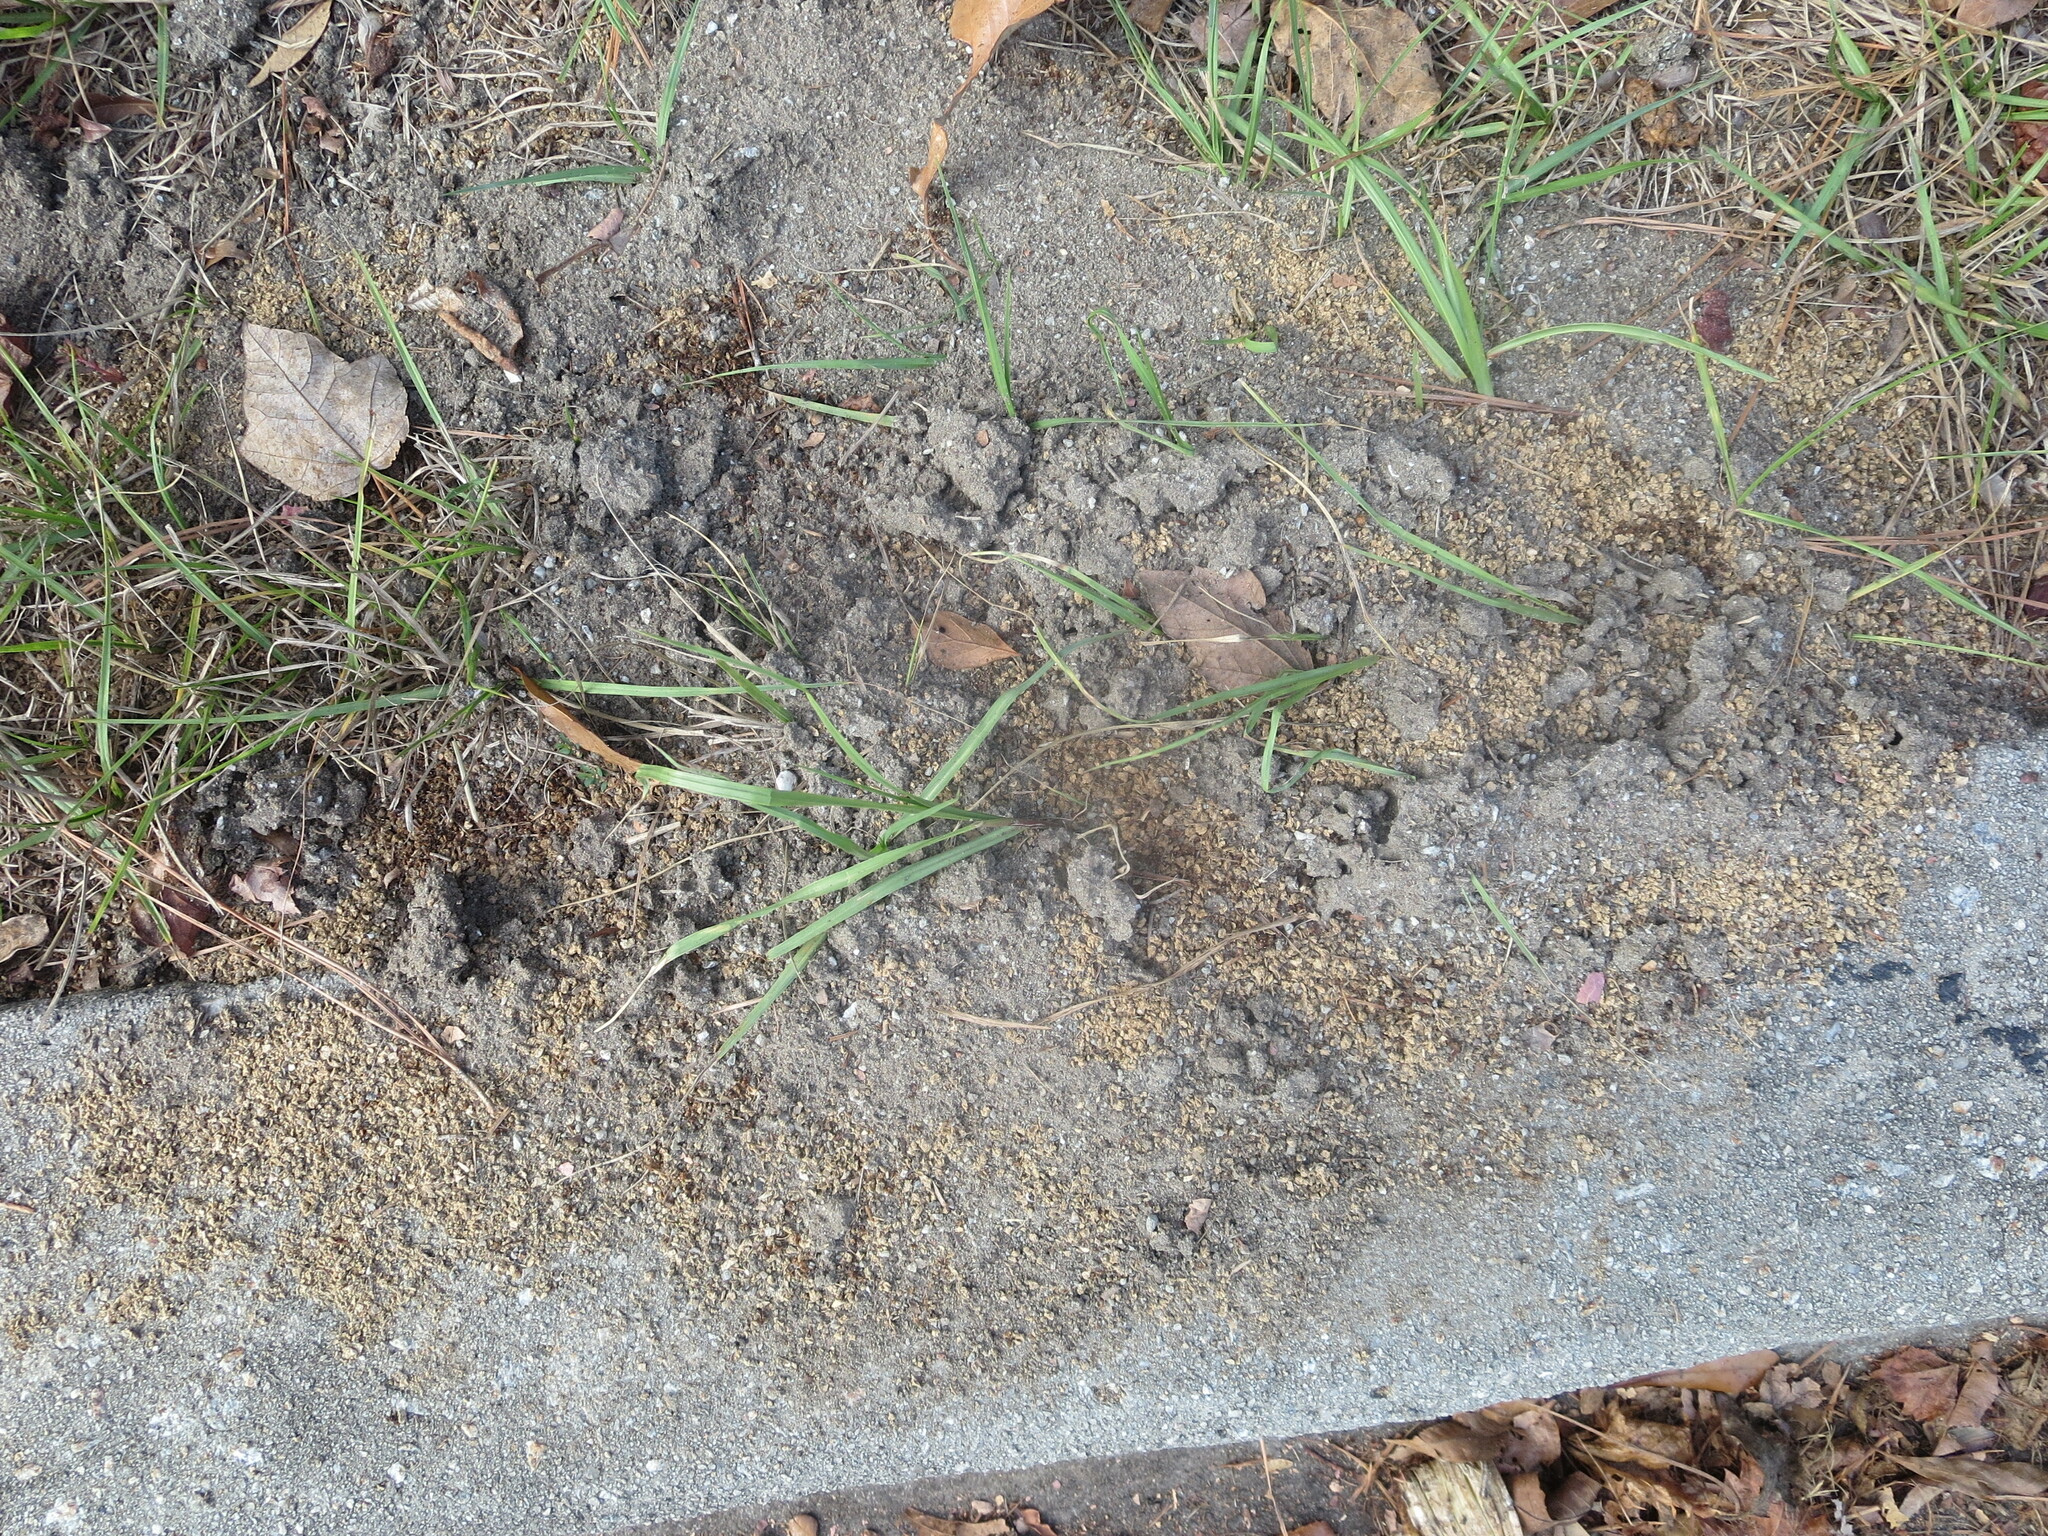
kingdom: Animalia
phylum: Arthropoda
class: Insecta
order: Hymenoptera
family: Formicidae
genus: Solenopsis
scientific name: Solenopsis invicta
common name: Red imported fire ant
